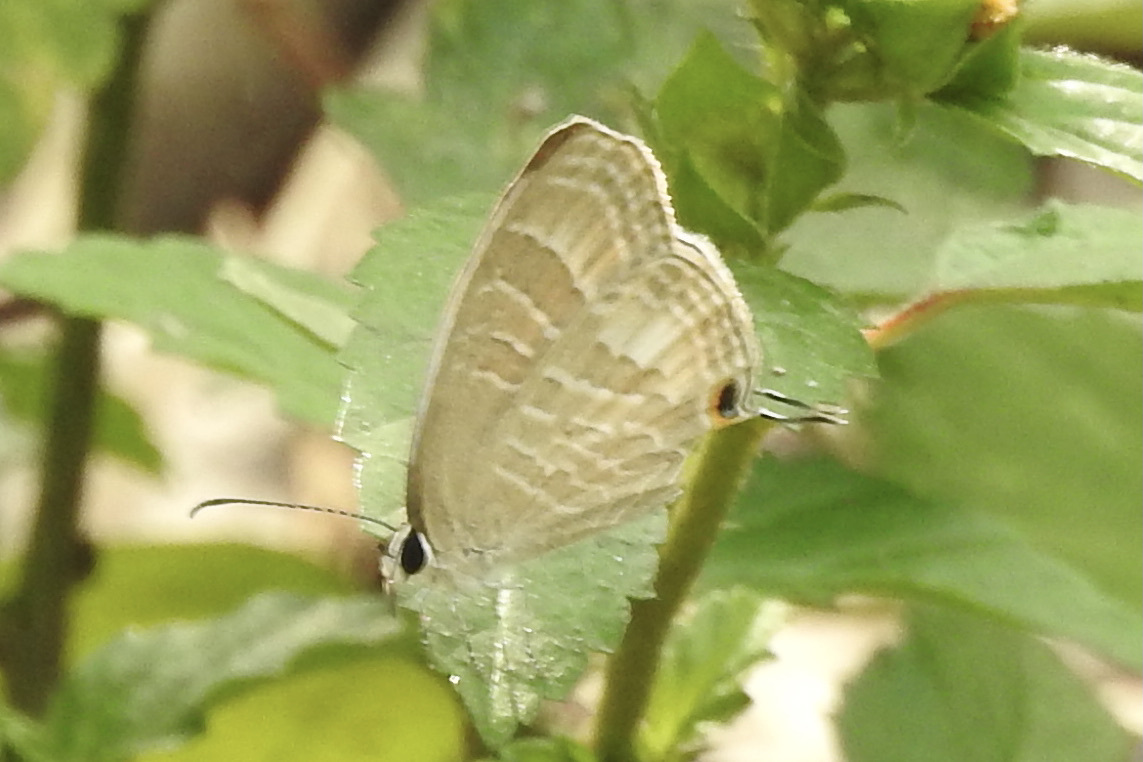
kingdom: Animalia
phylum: Arthropoda
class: Insecta
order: Lepidoptera
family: Lycaenidae
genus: Jamides
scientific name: Jamides celeno
